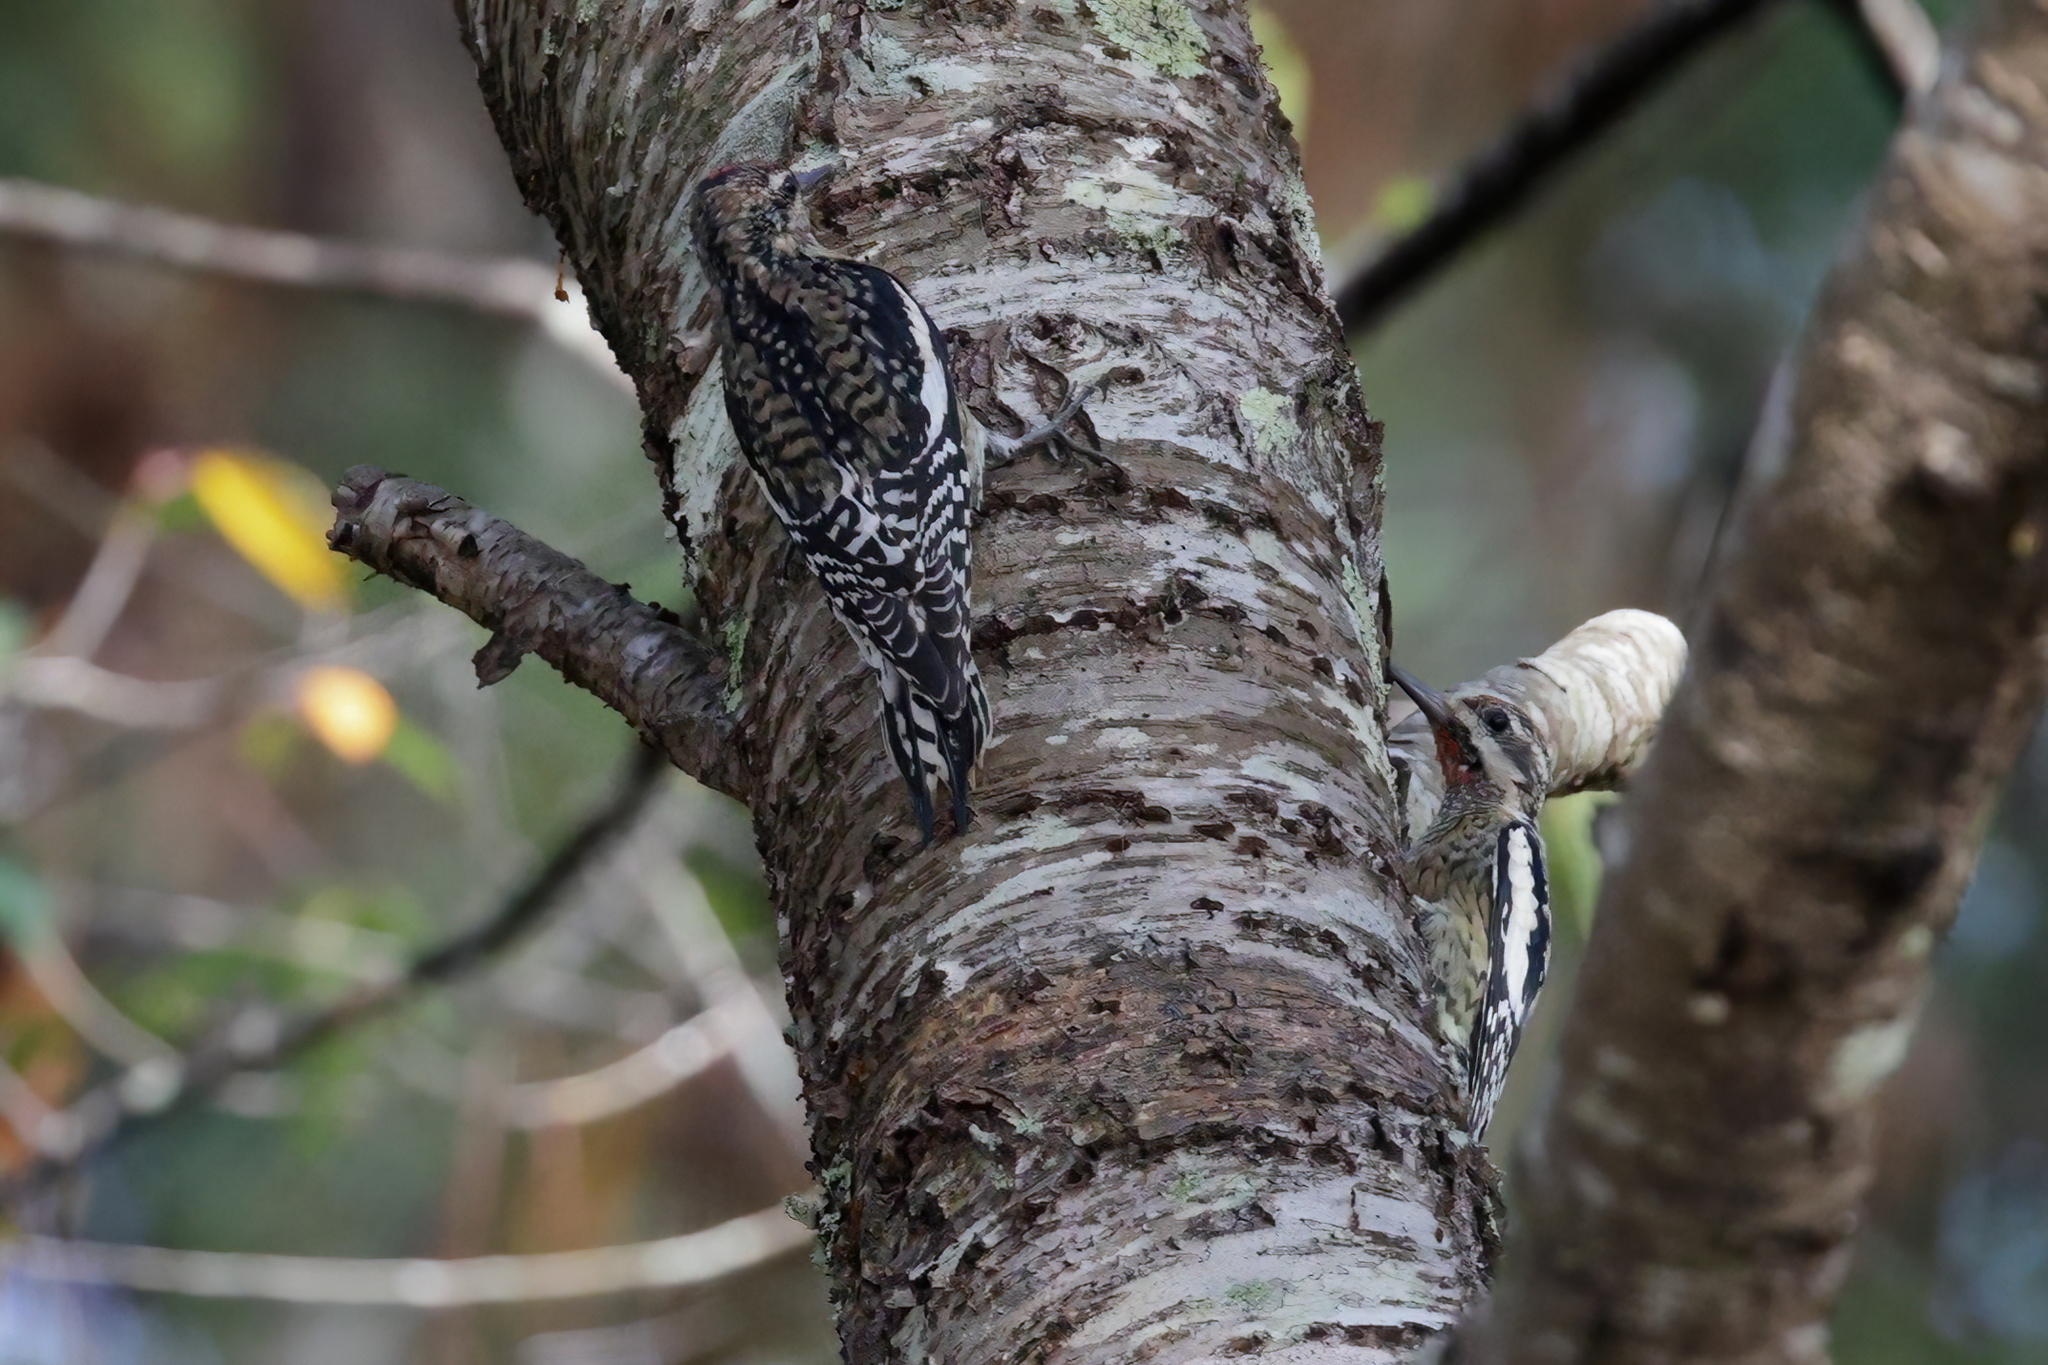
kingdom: Animalia
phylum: Chordata
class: Aves
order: Piciformes
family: Picidae
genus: Sphyrapicus
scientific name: Sphyrapicus varius
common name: Yellow-bellied sapsucker
